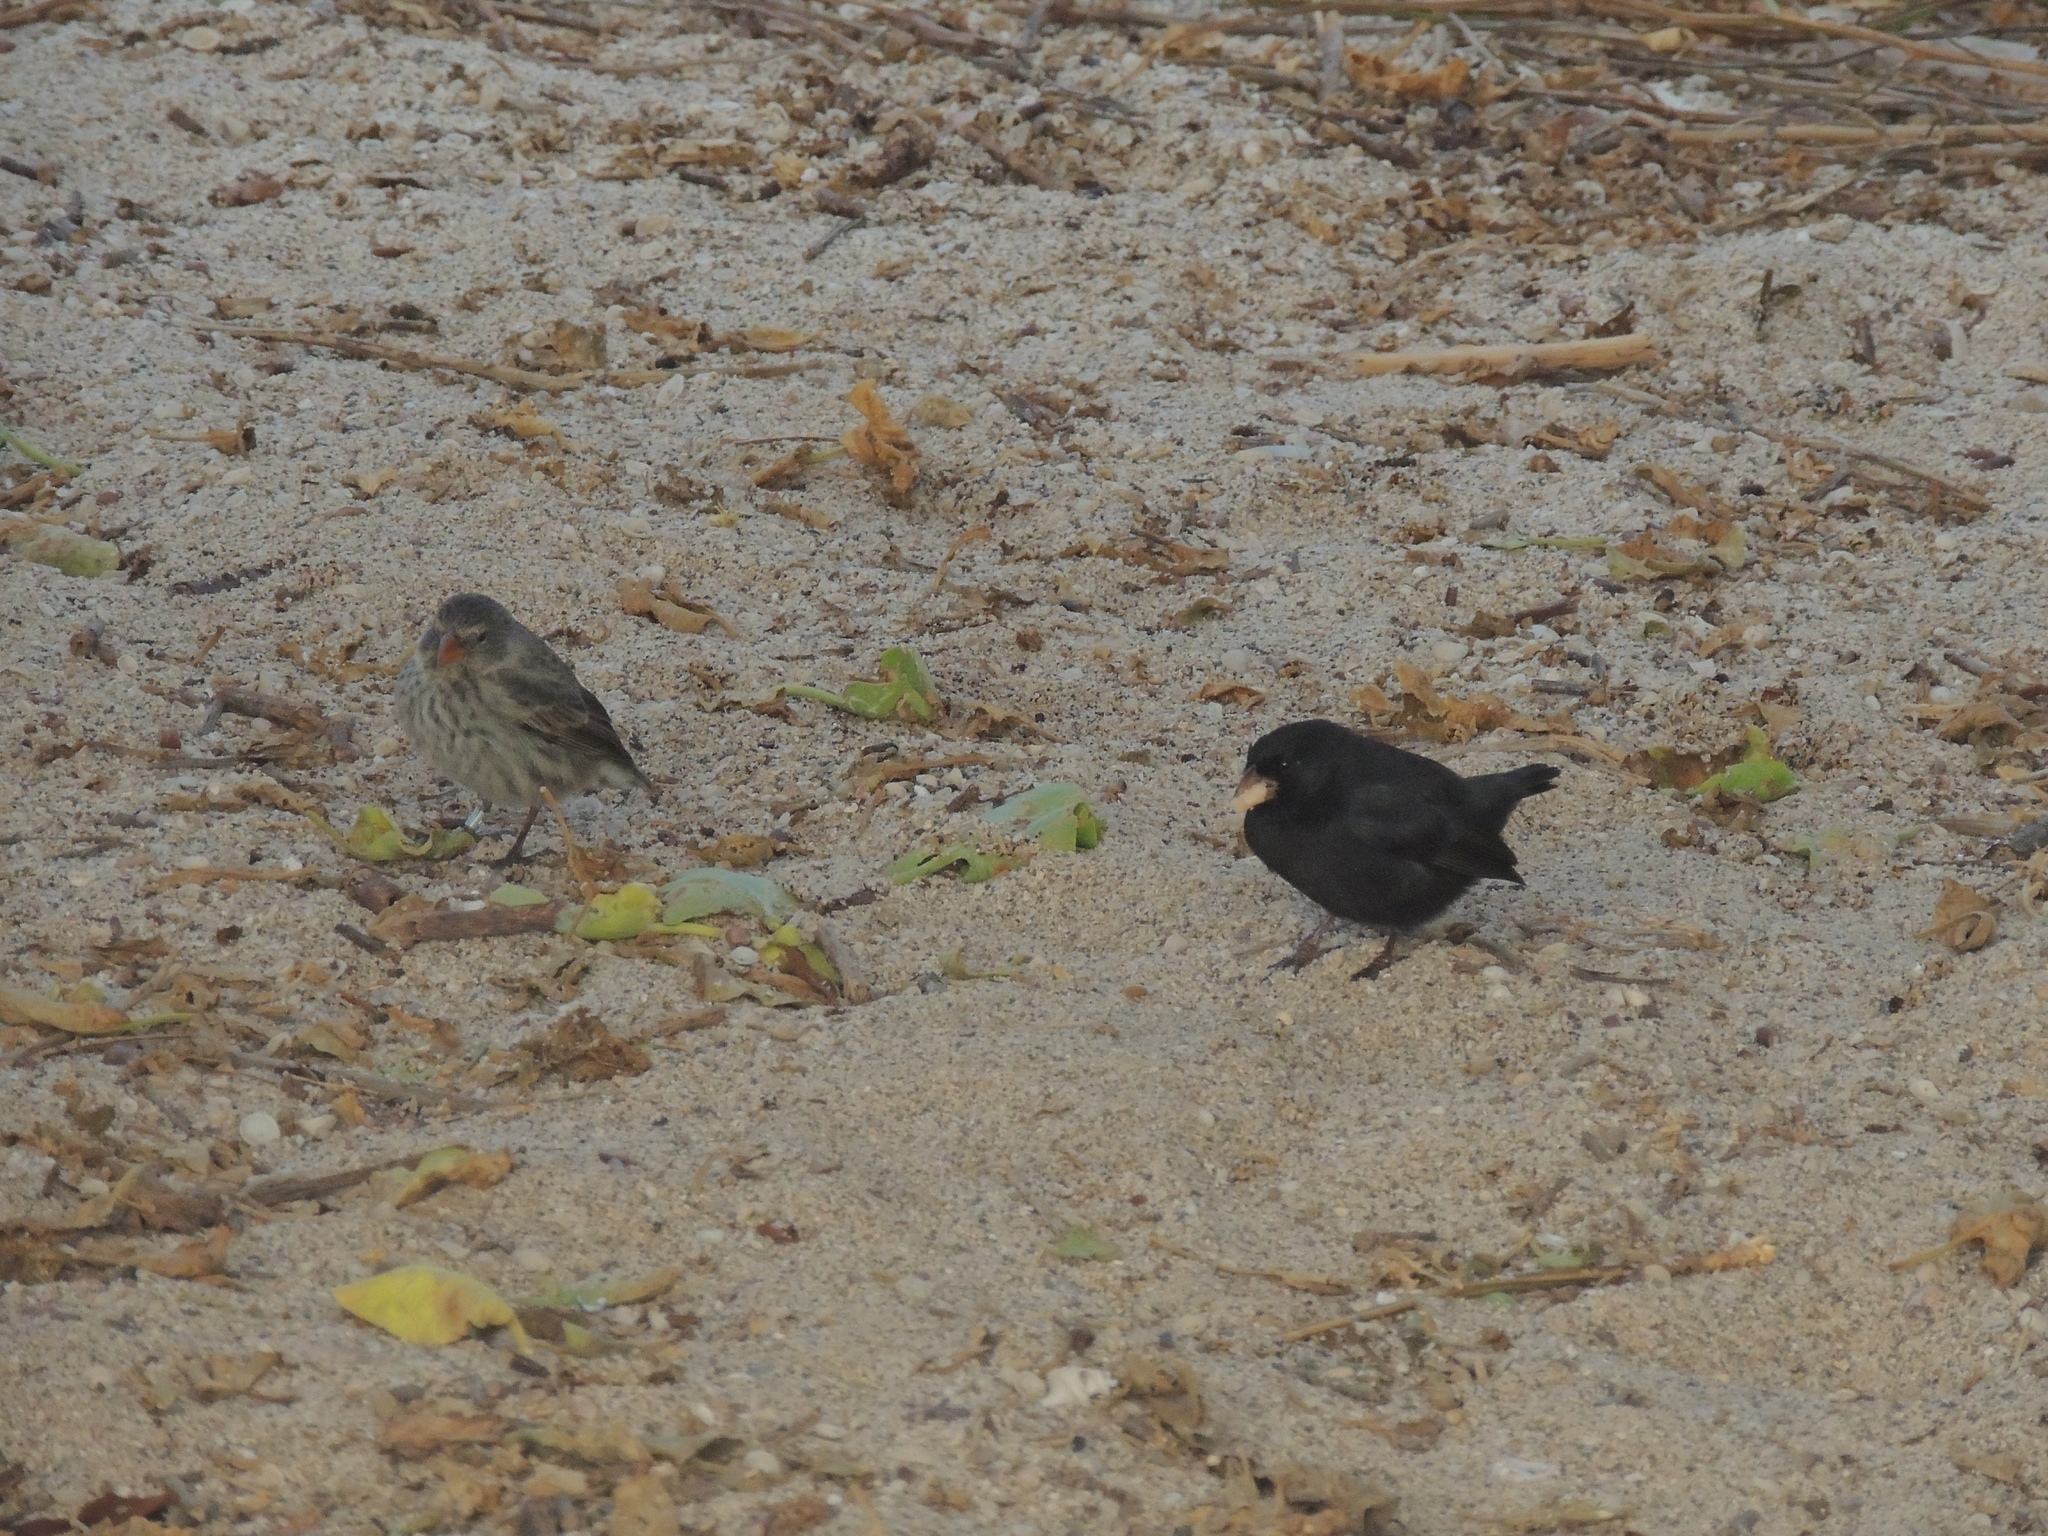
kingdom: Animalia
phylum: Chordata
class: Aves
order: Passeriformes
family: Thraupidae
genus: Geospiza
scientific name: Geospiza fuliginosa
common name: Small ground finch
